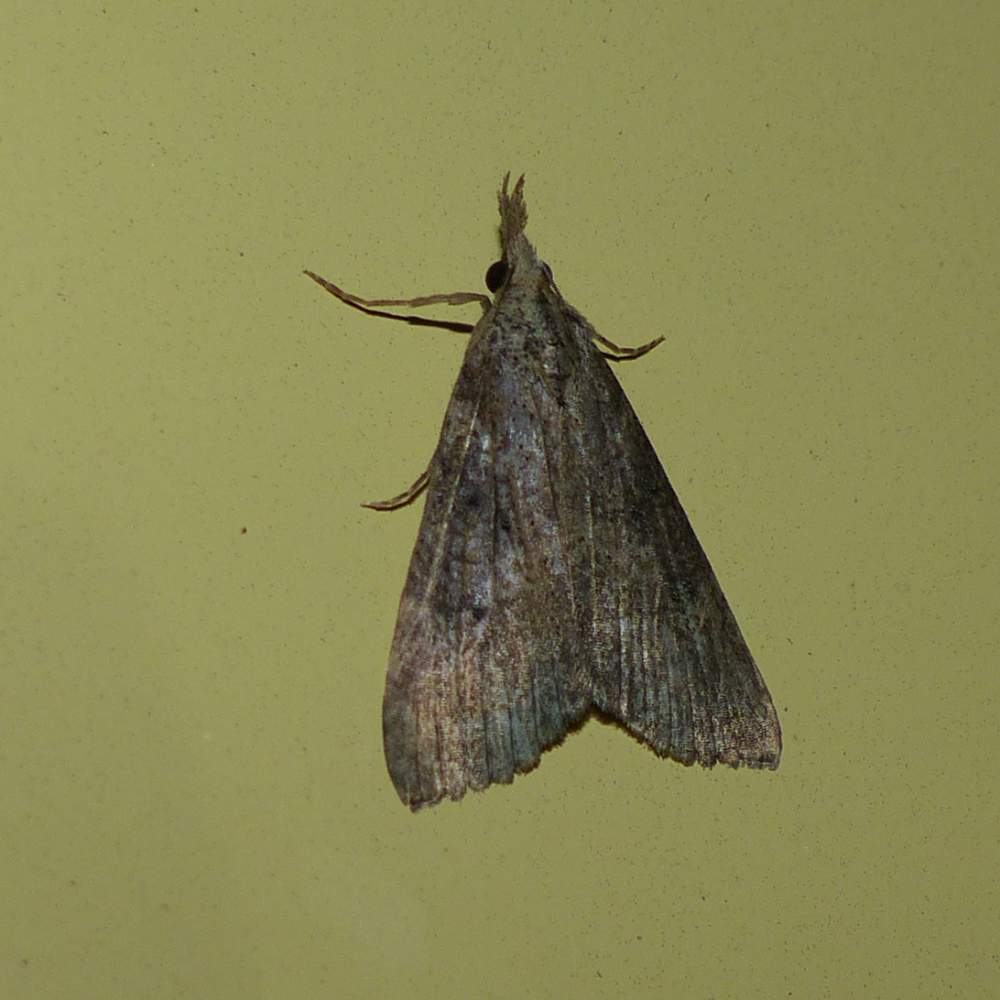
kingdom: Animalia
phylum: Arthropoda
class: Insecta
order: Lepidoptera
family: Erebidae
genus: Hypena
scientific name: Hypena humuli
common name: Hop vine snout
